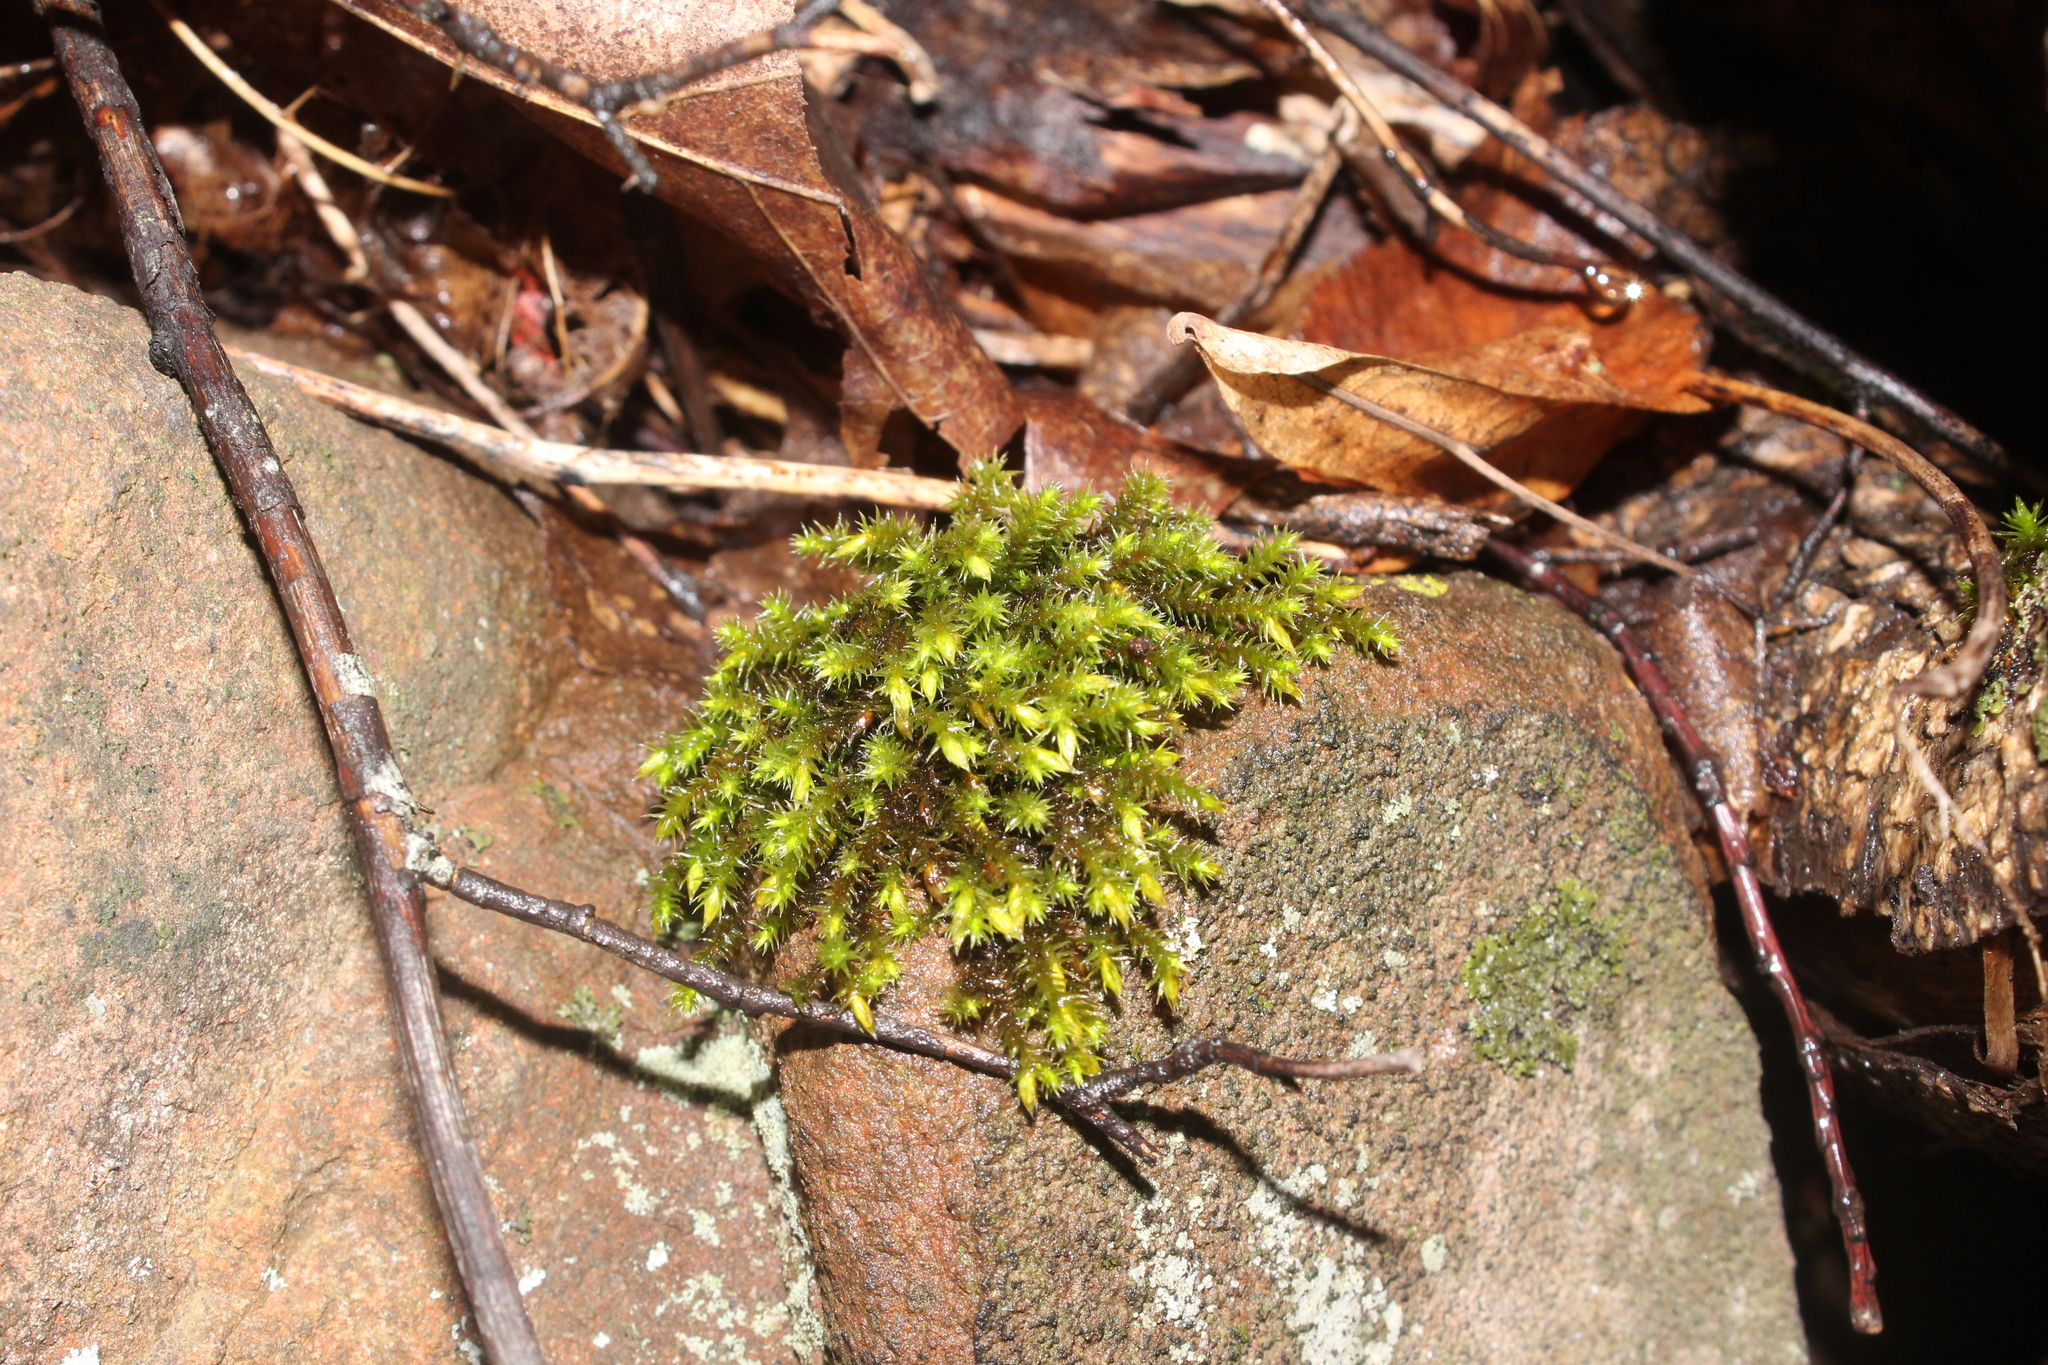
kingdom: Plantae
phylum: Bryophyta
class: Bryopsida
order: Hedwigiales
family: Hedwigiaceae
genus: Hedwigia
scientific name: Hedwigia ciliata
